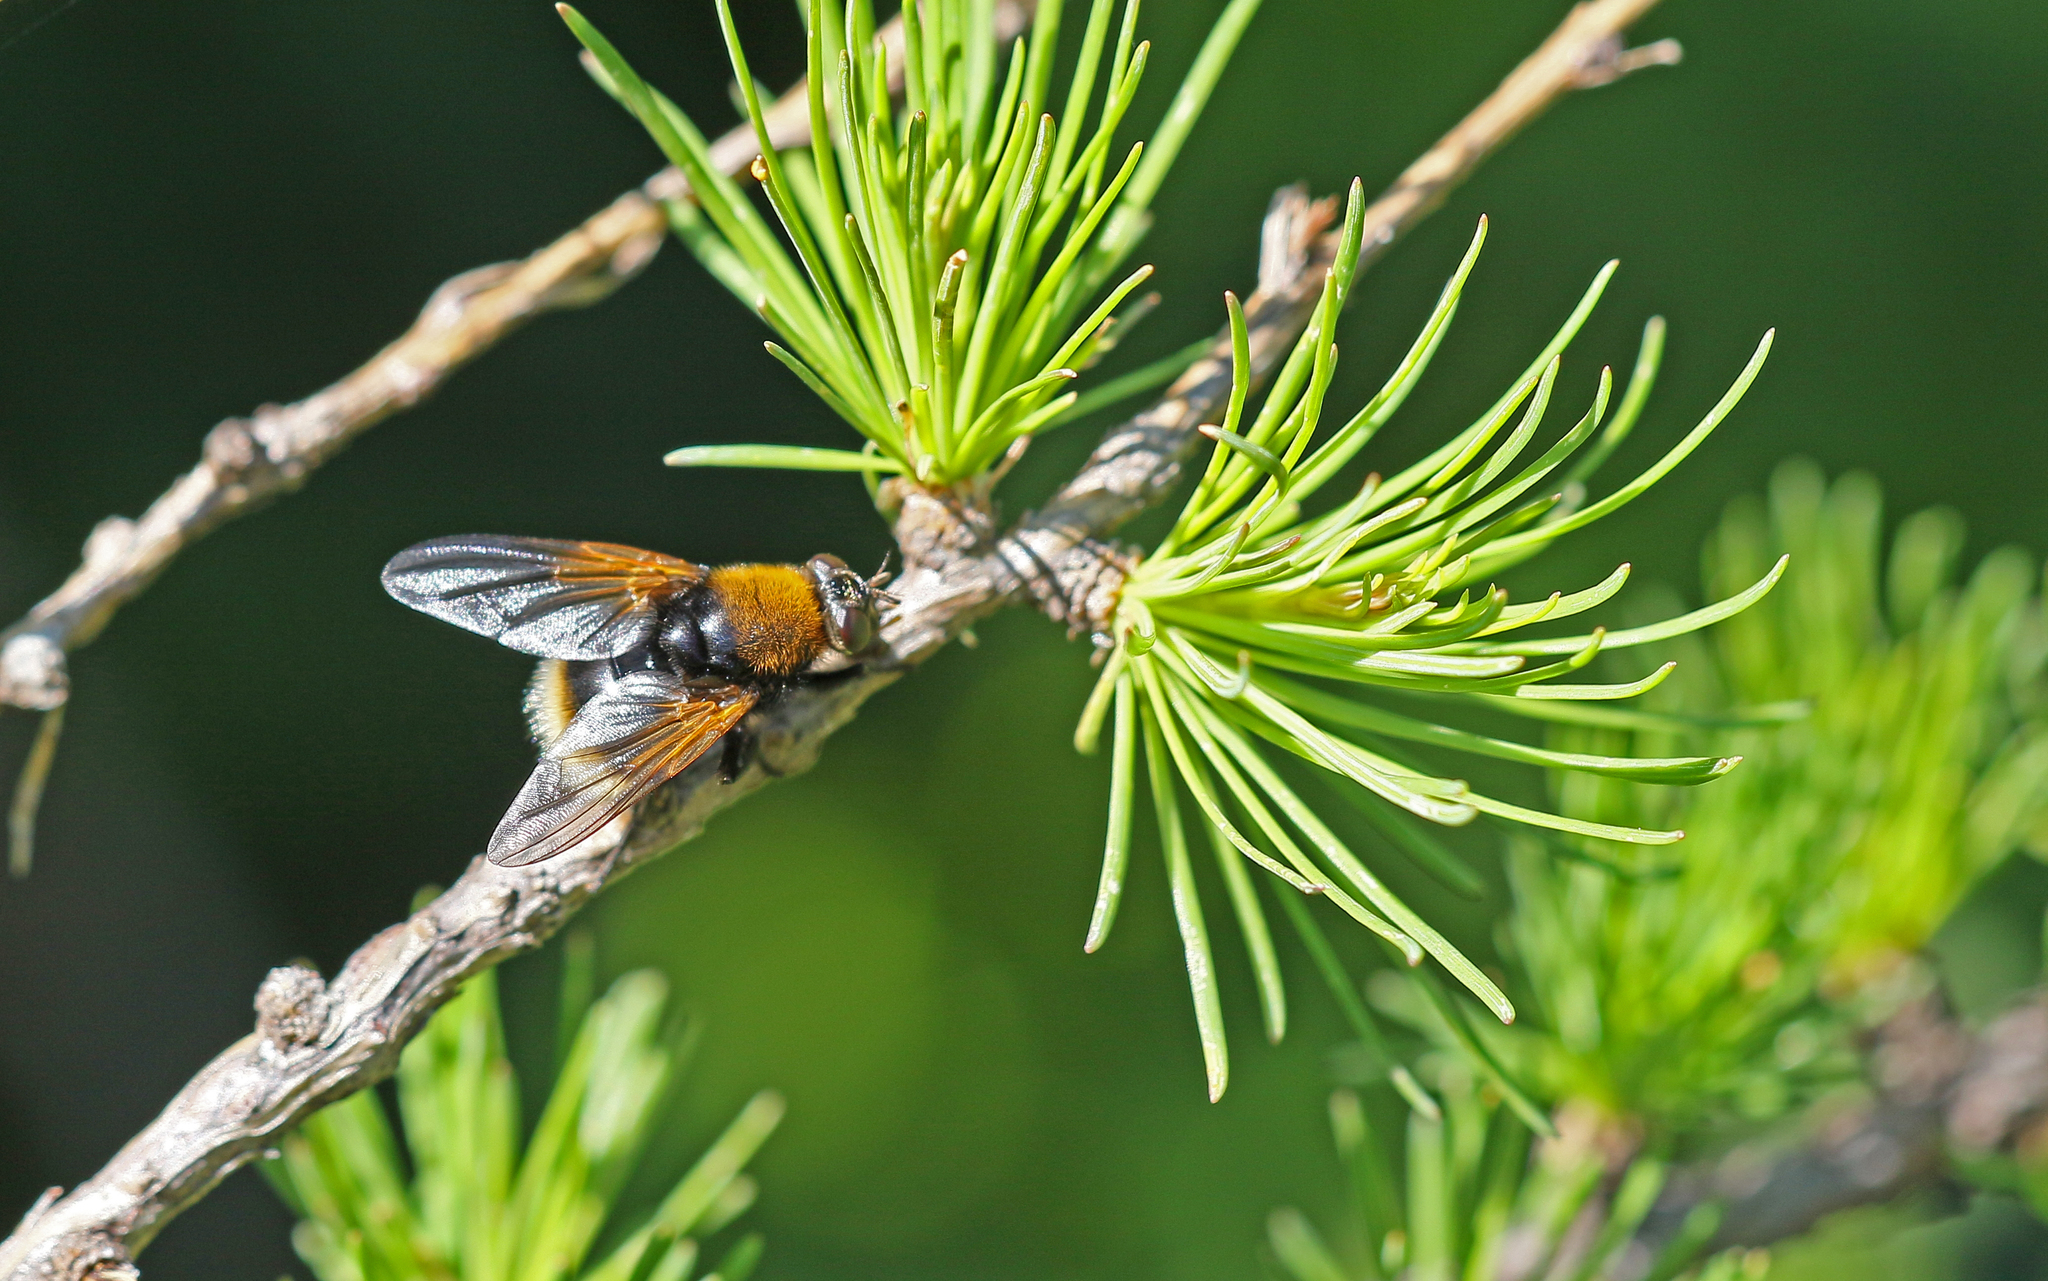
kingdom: Animalia
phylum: Arthropoda
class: Insecta
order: Diptera
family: Muscidae
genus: Mesembrina
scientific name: Mesembrina mystacea
